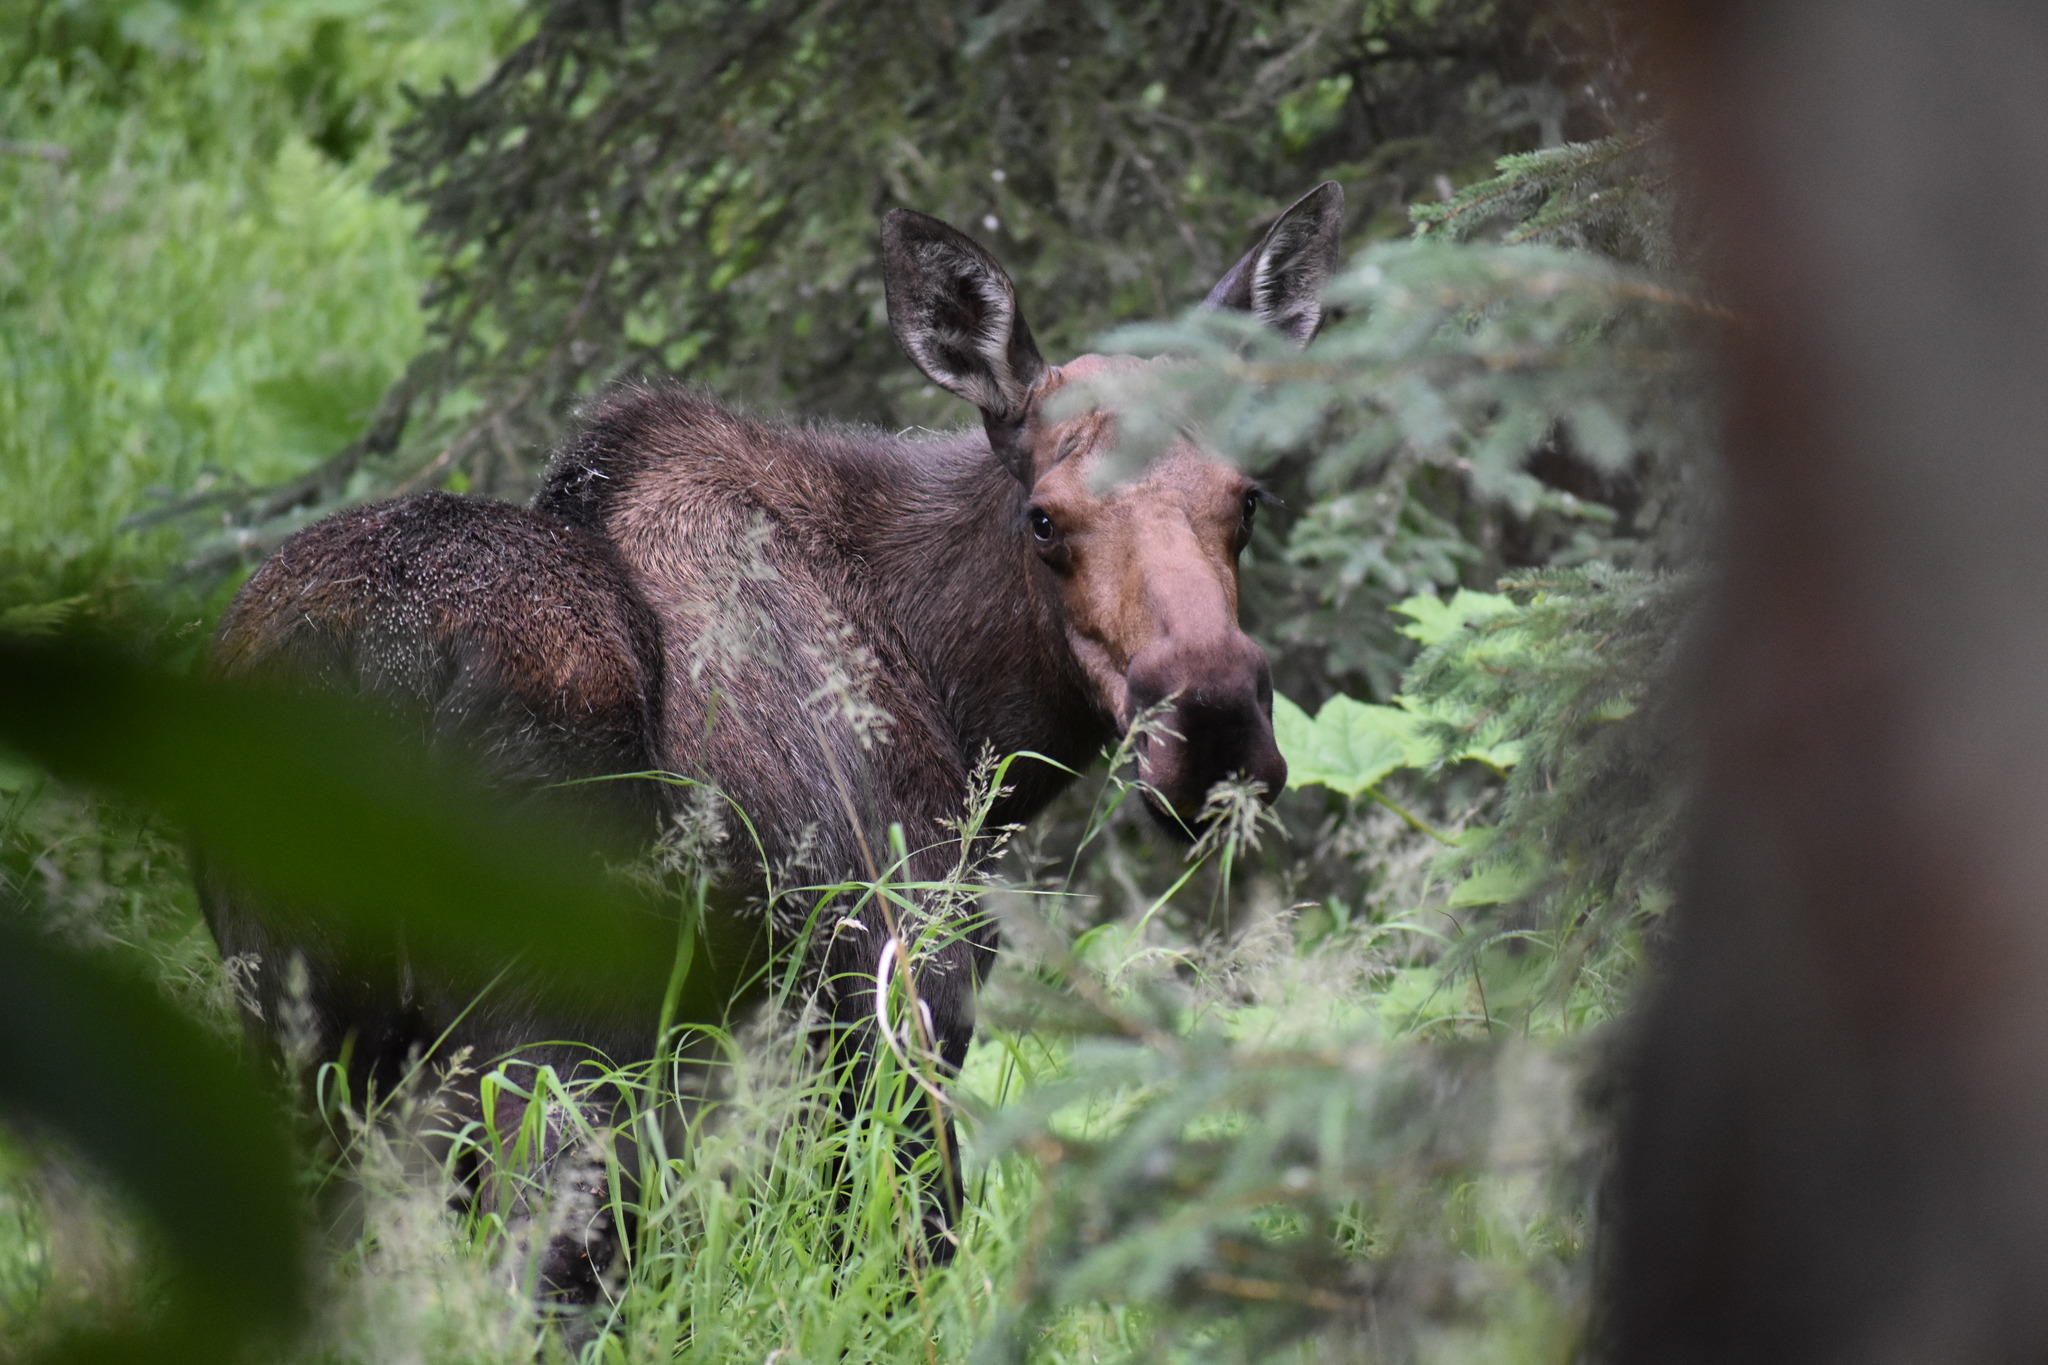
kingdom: Animalia
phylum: Chordata
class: Mammalia
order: Artiodactyla
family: Cervidae
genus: Alces
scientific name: Alces alces
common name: Moose
